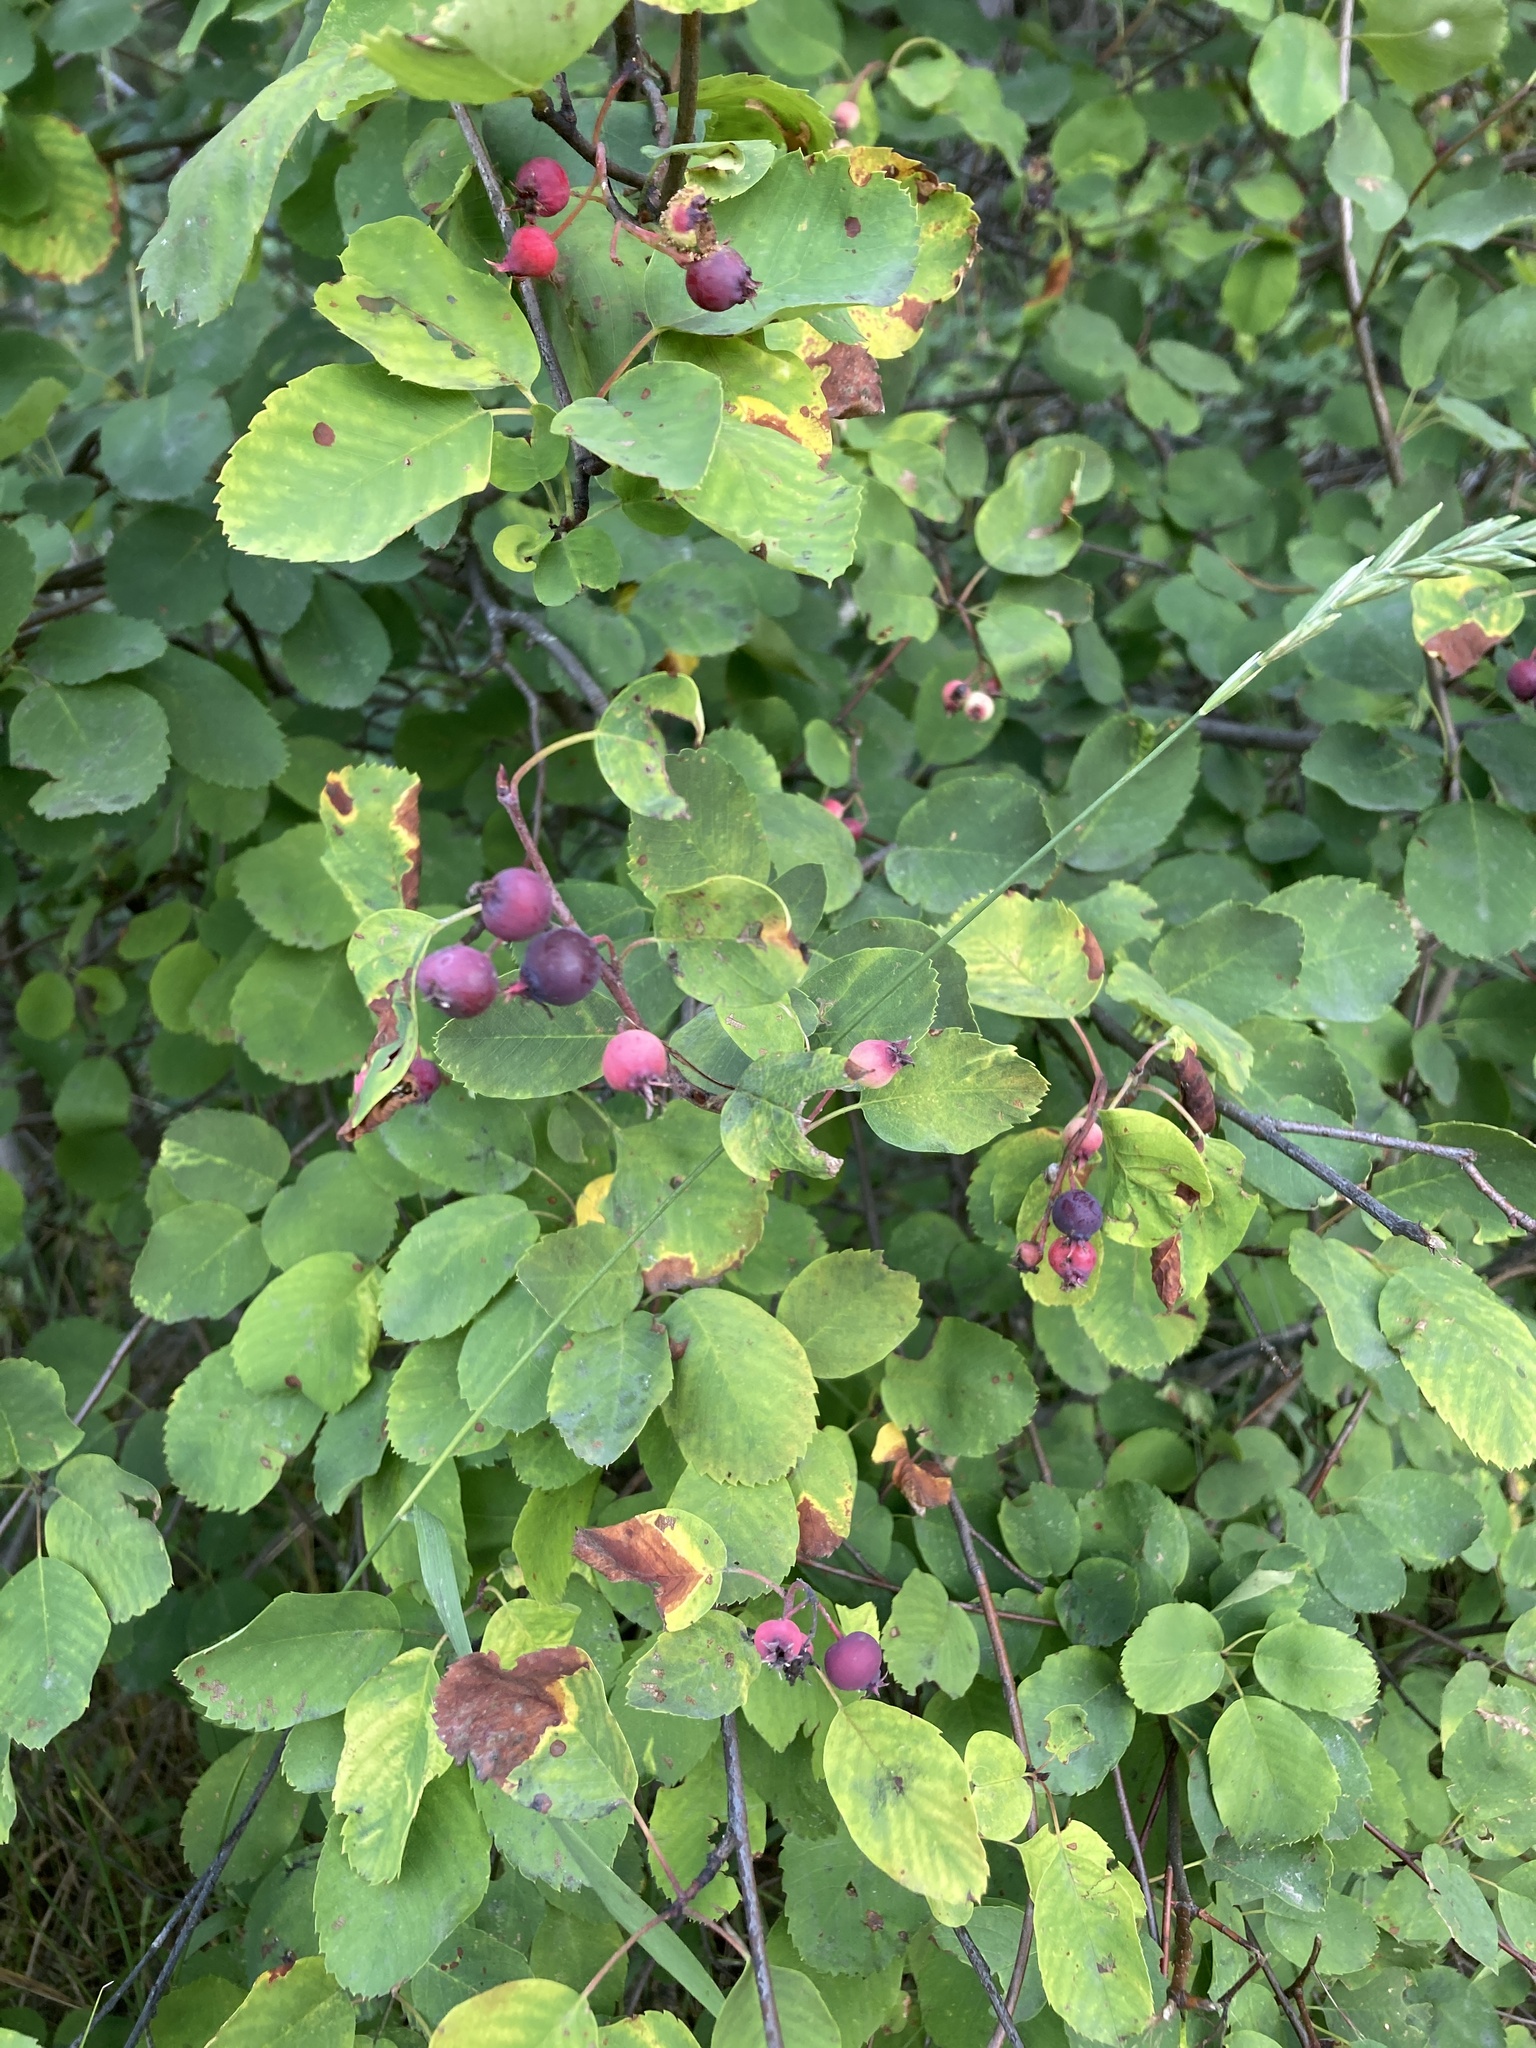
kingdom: Plantae
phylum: Tracheophyta
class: Magnoliopsida
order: Rosales
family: Rosaceae
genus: Amelanchier
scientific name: Amelanchier alnifolia
